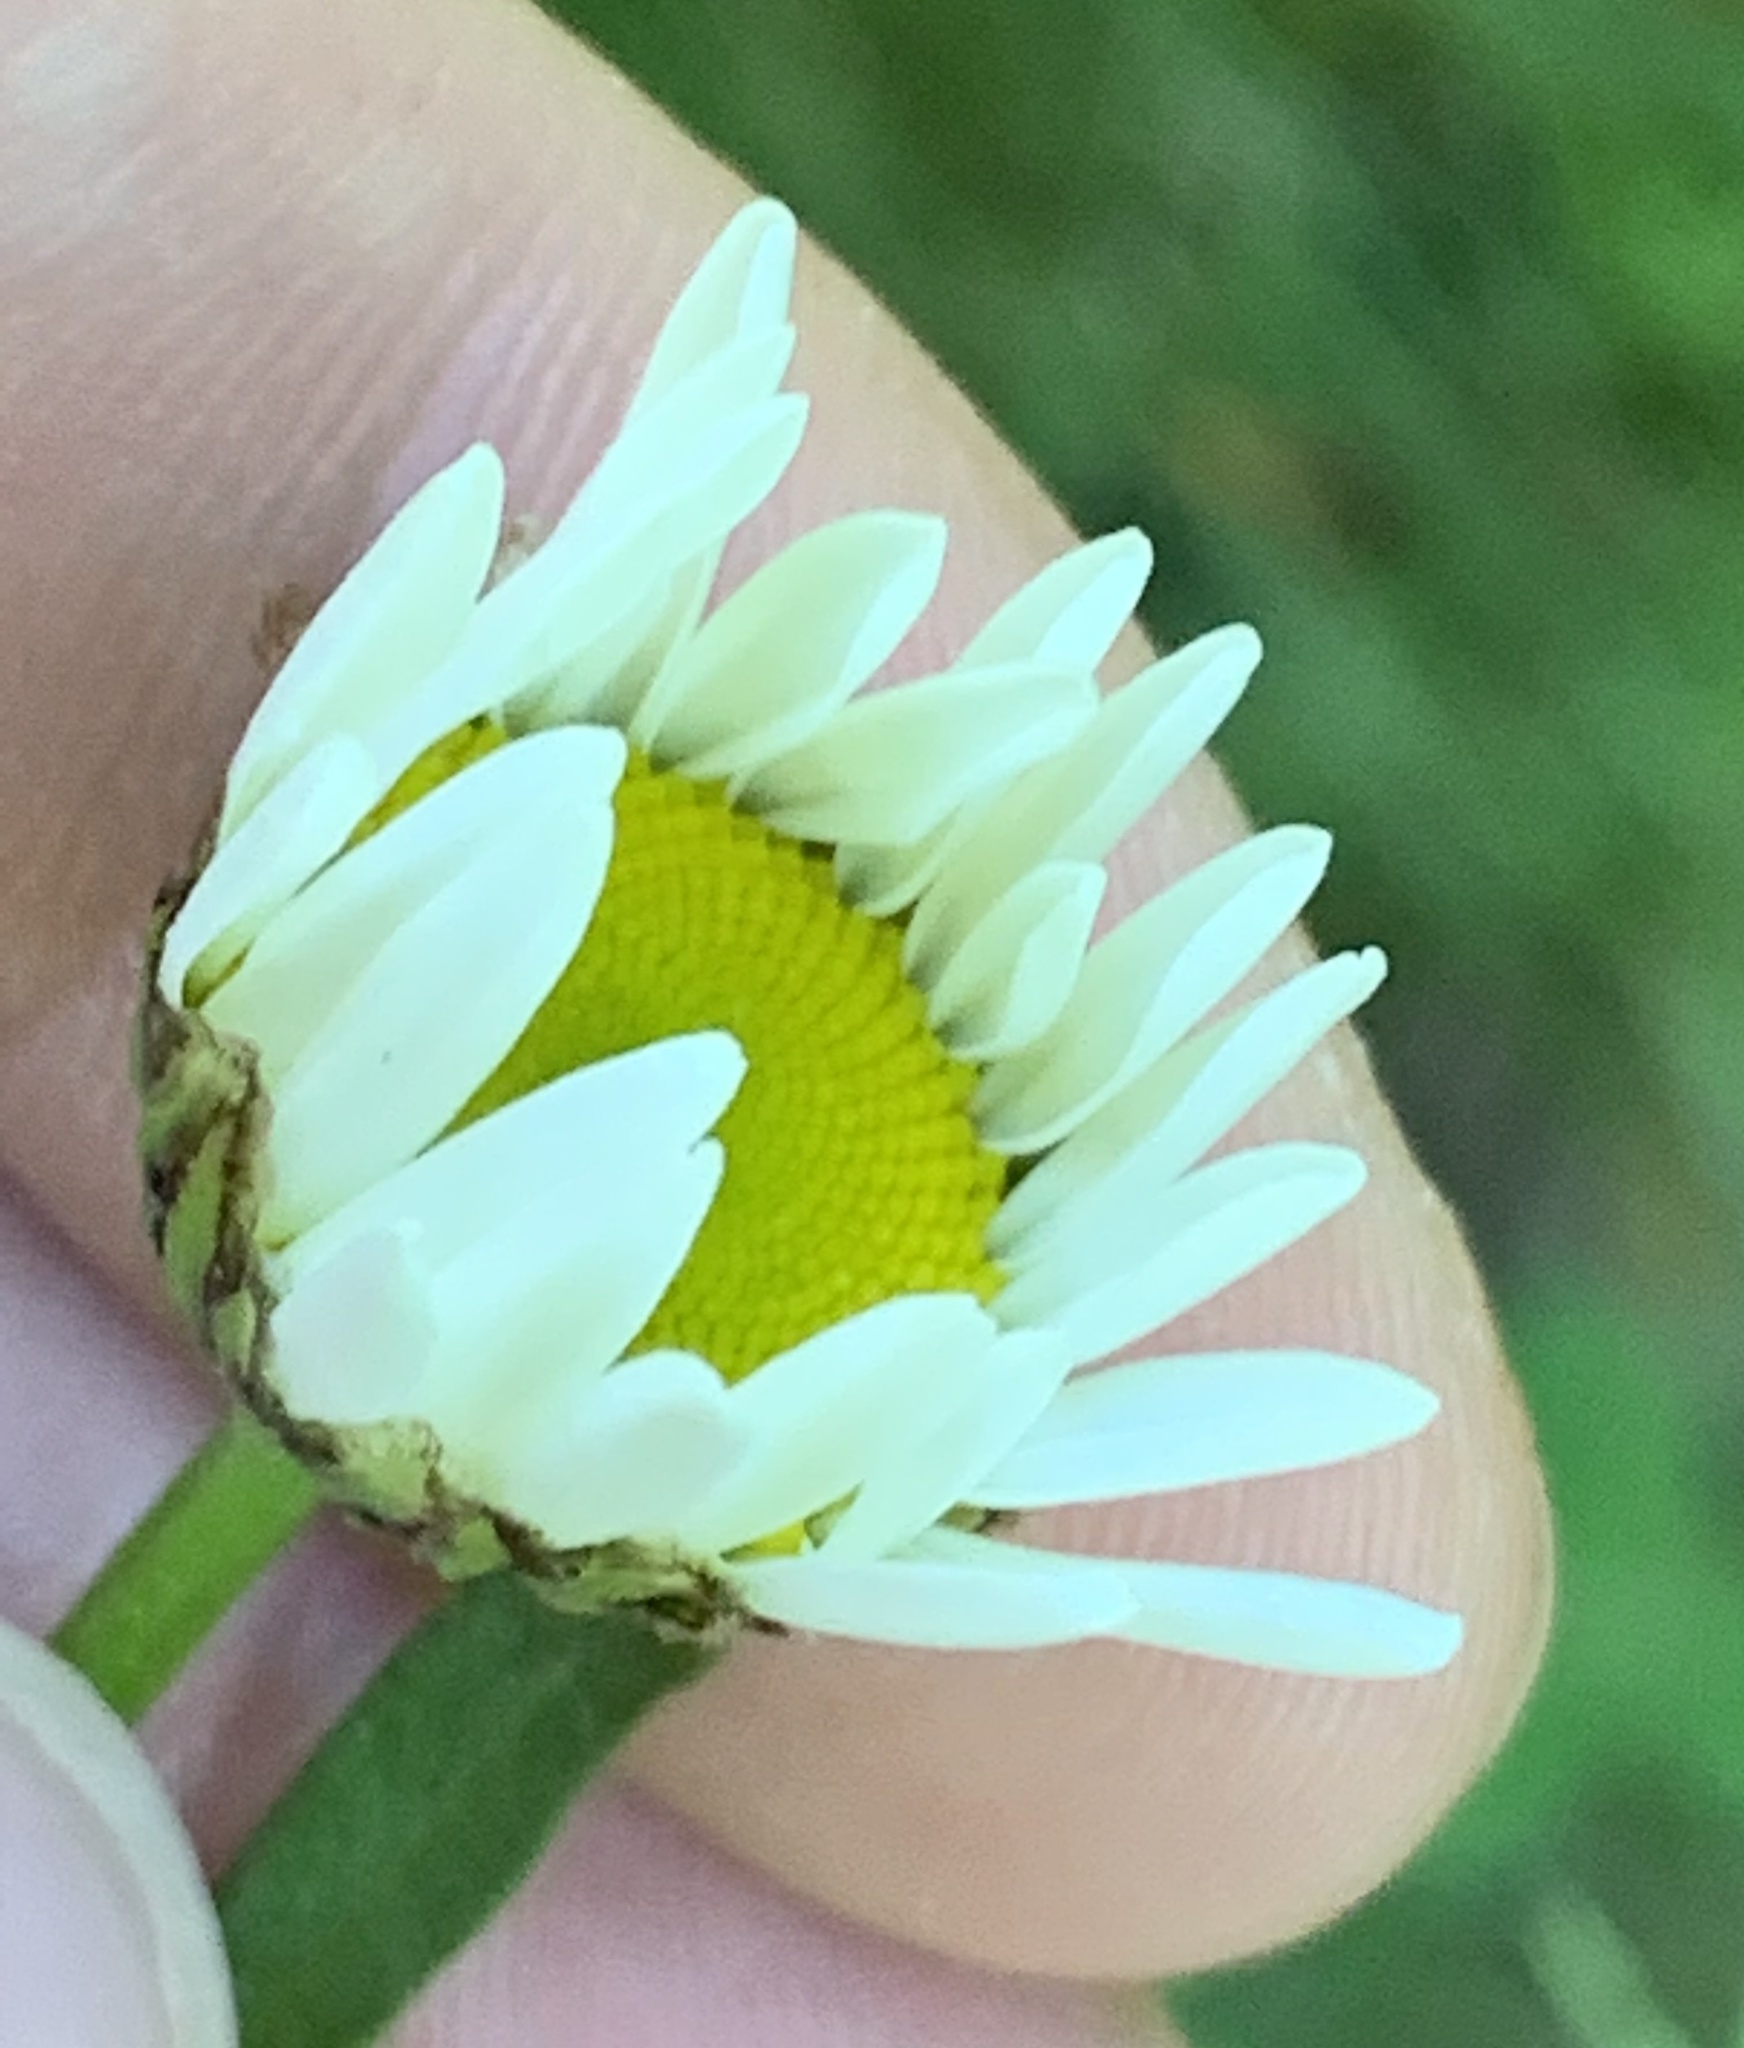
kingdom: Plantae
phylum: Tracheophyta
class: Magnoliopsida
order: Asterales
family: Asteraceae
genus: Leucanthemum
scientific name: Leucanthemum vulgare
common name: Oxeye daisy
